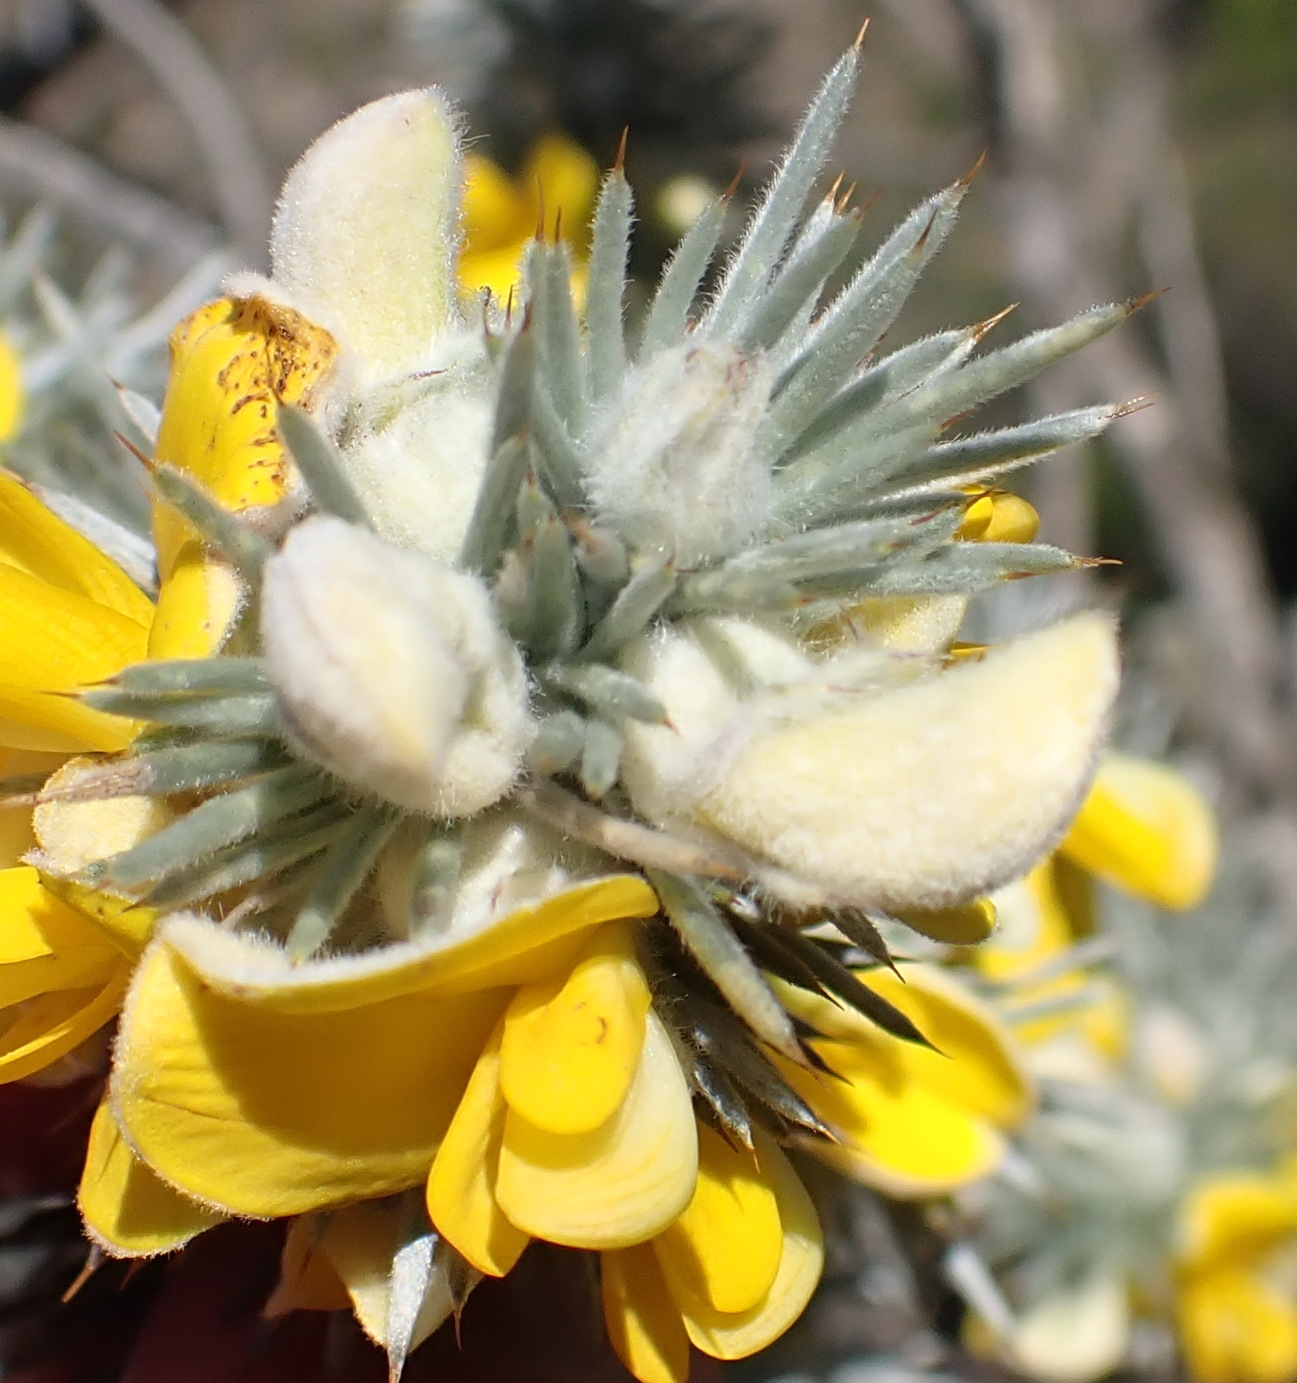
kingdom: Plantae
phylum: Tracheophyta
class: Magnoliopsida
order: Fabales
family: Fabaceae
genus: Aspalathus
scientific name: Aspalathus hystrix
